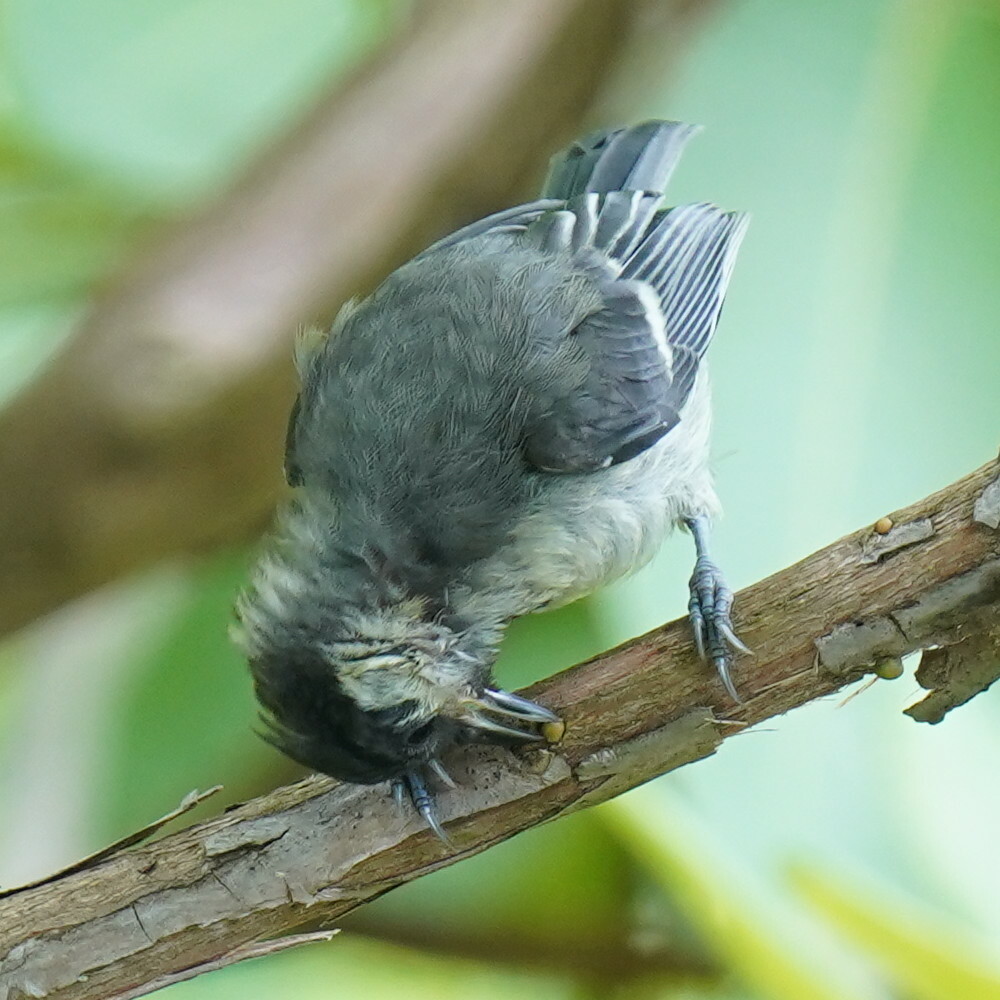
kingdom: Animalia
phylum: Chordata
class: Aves
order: Passeriformes
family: Paridae
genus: Parus
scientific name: Parus major
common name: Great tit
